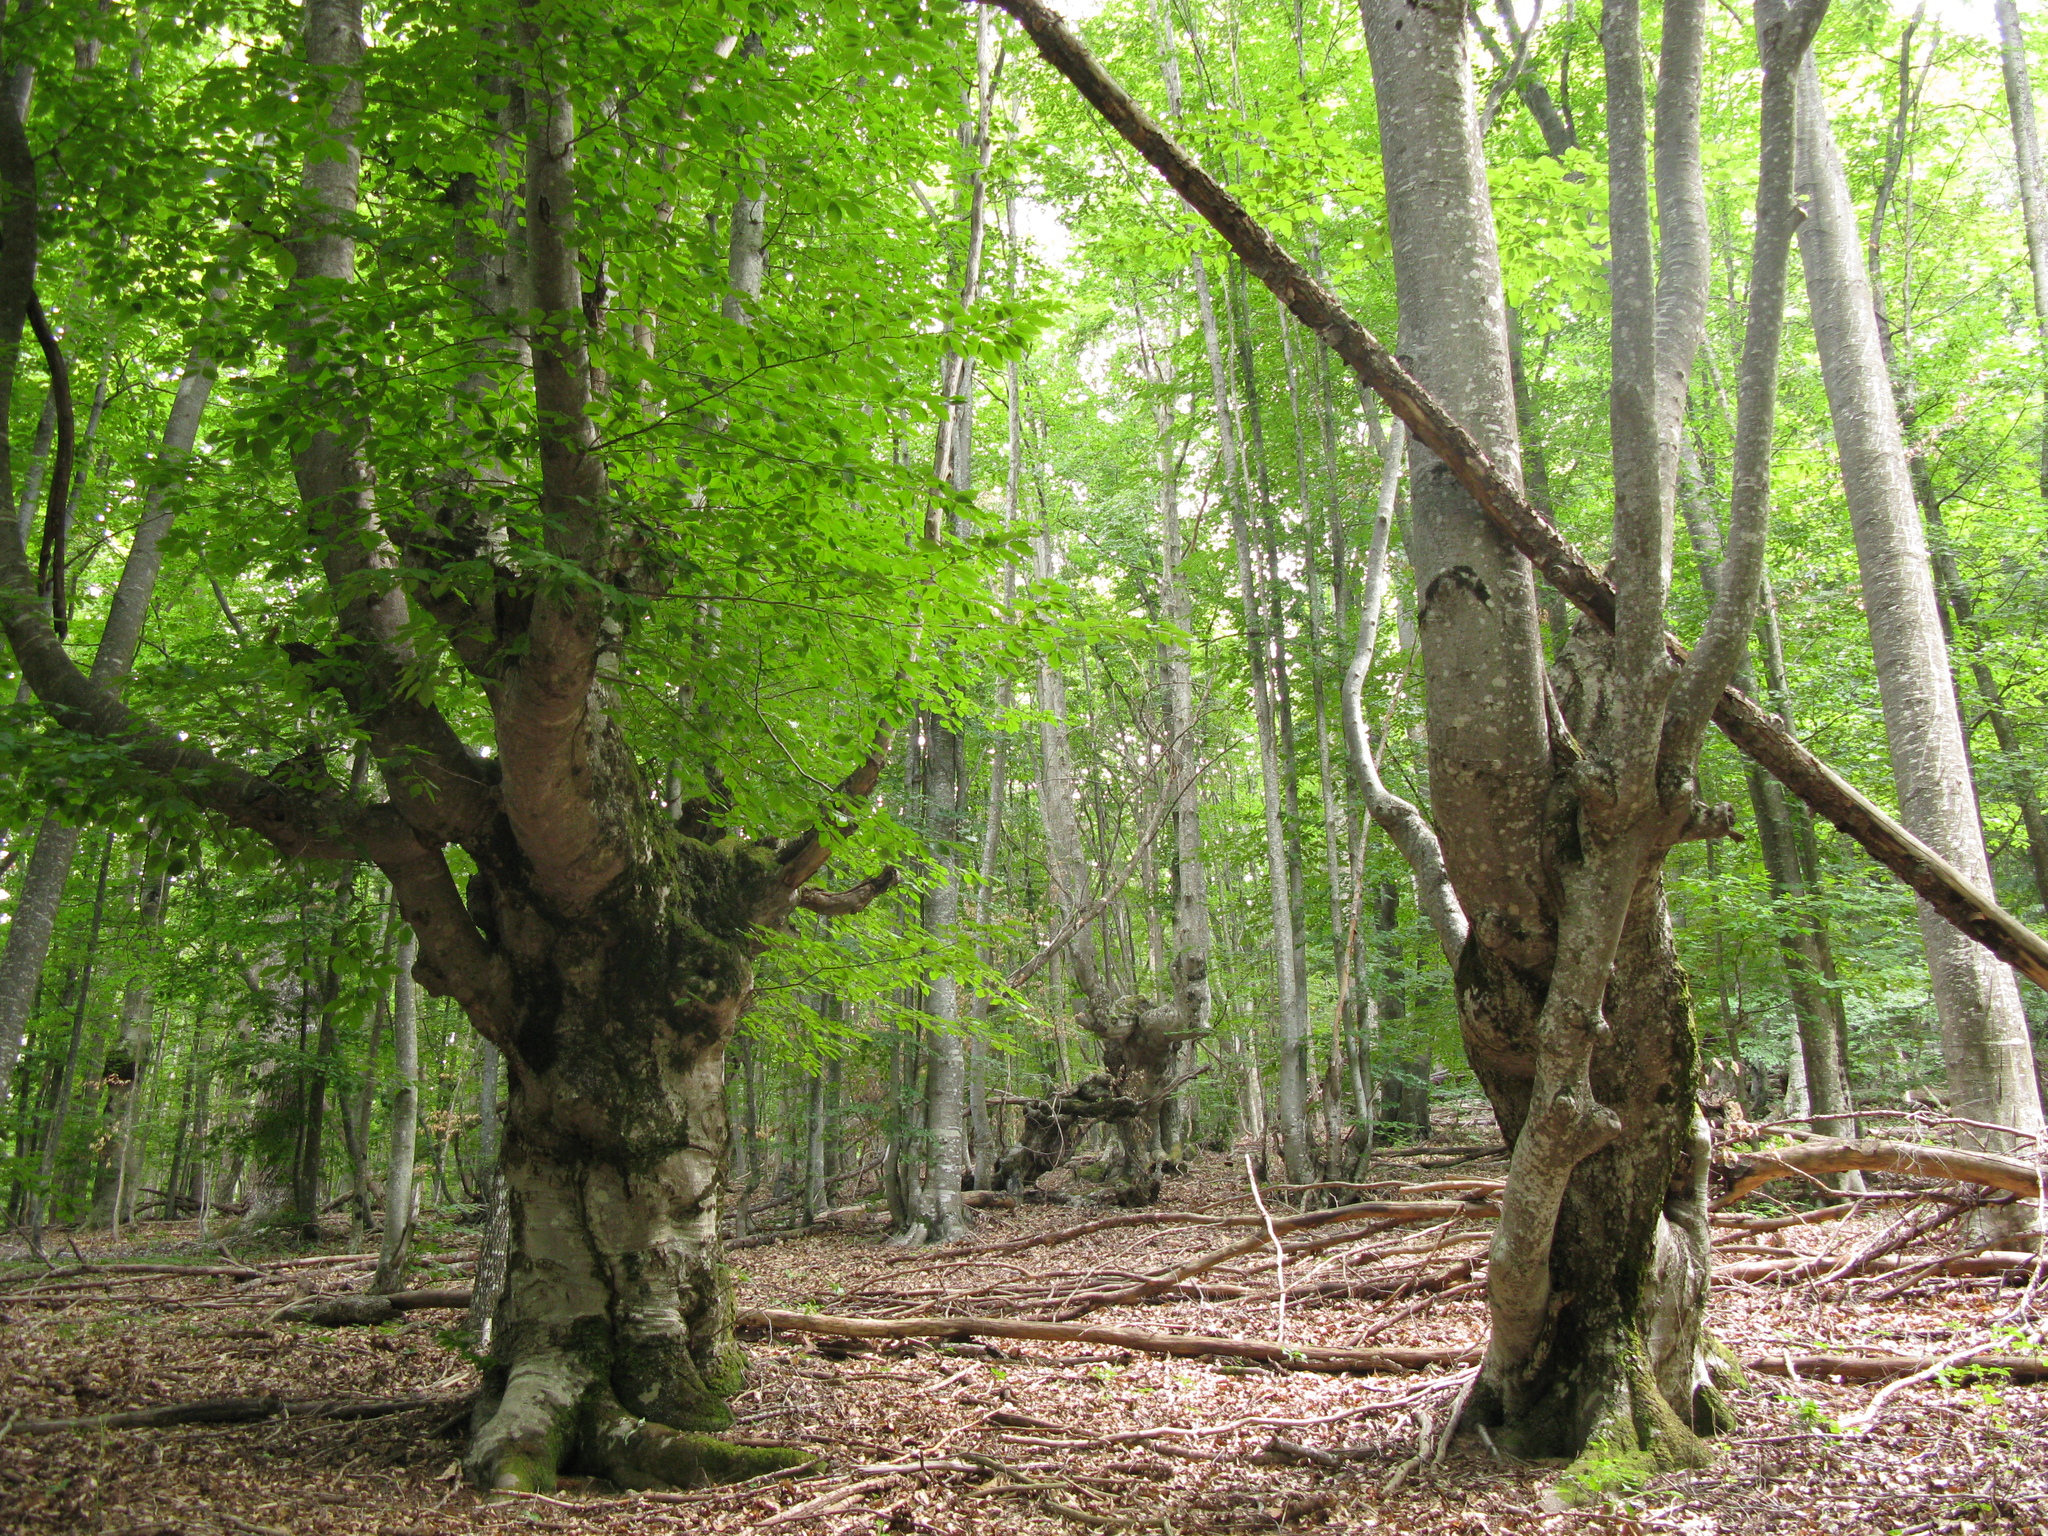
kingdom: Plantae
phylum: Tracheophyta
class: Magnoliopsida
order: Fagales
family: Fagaceae
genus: Fagus
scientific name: Fagus taurica
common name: Crimean beech
